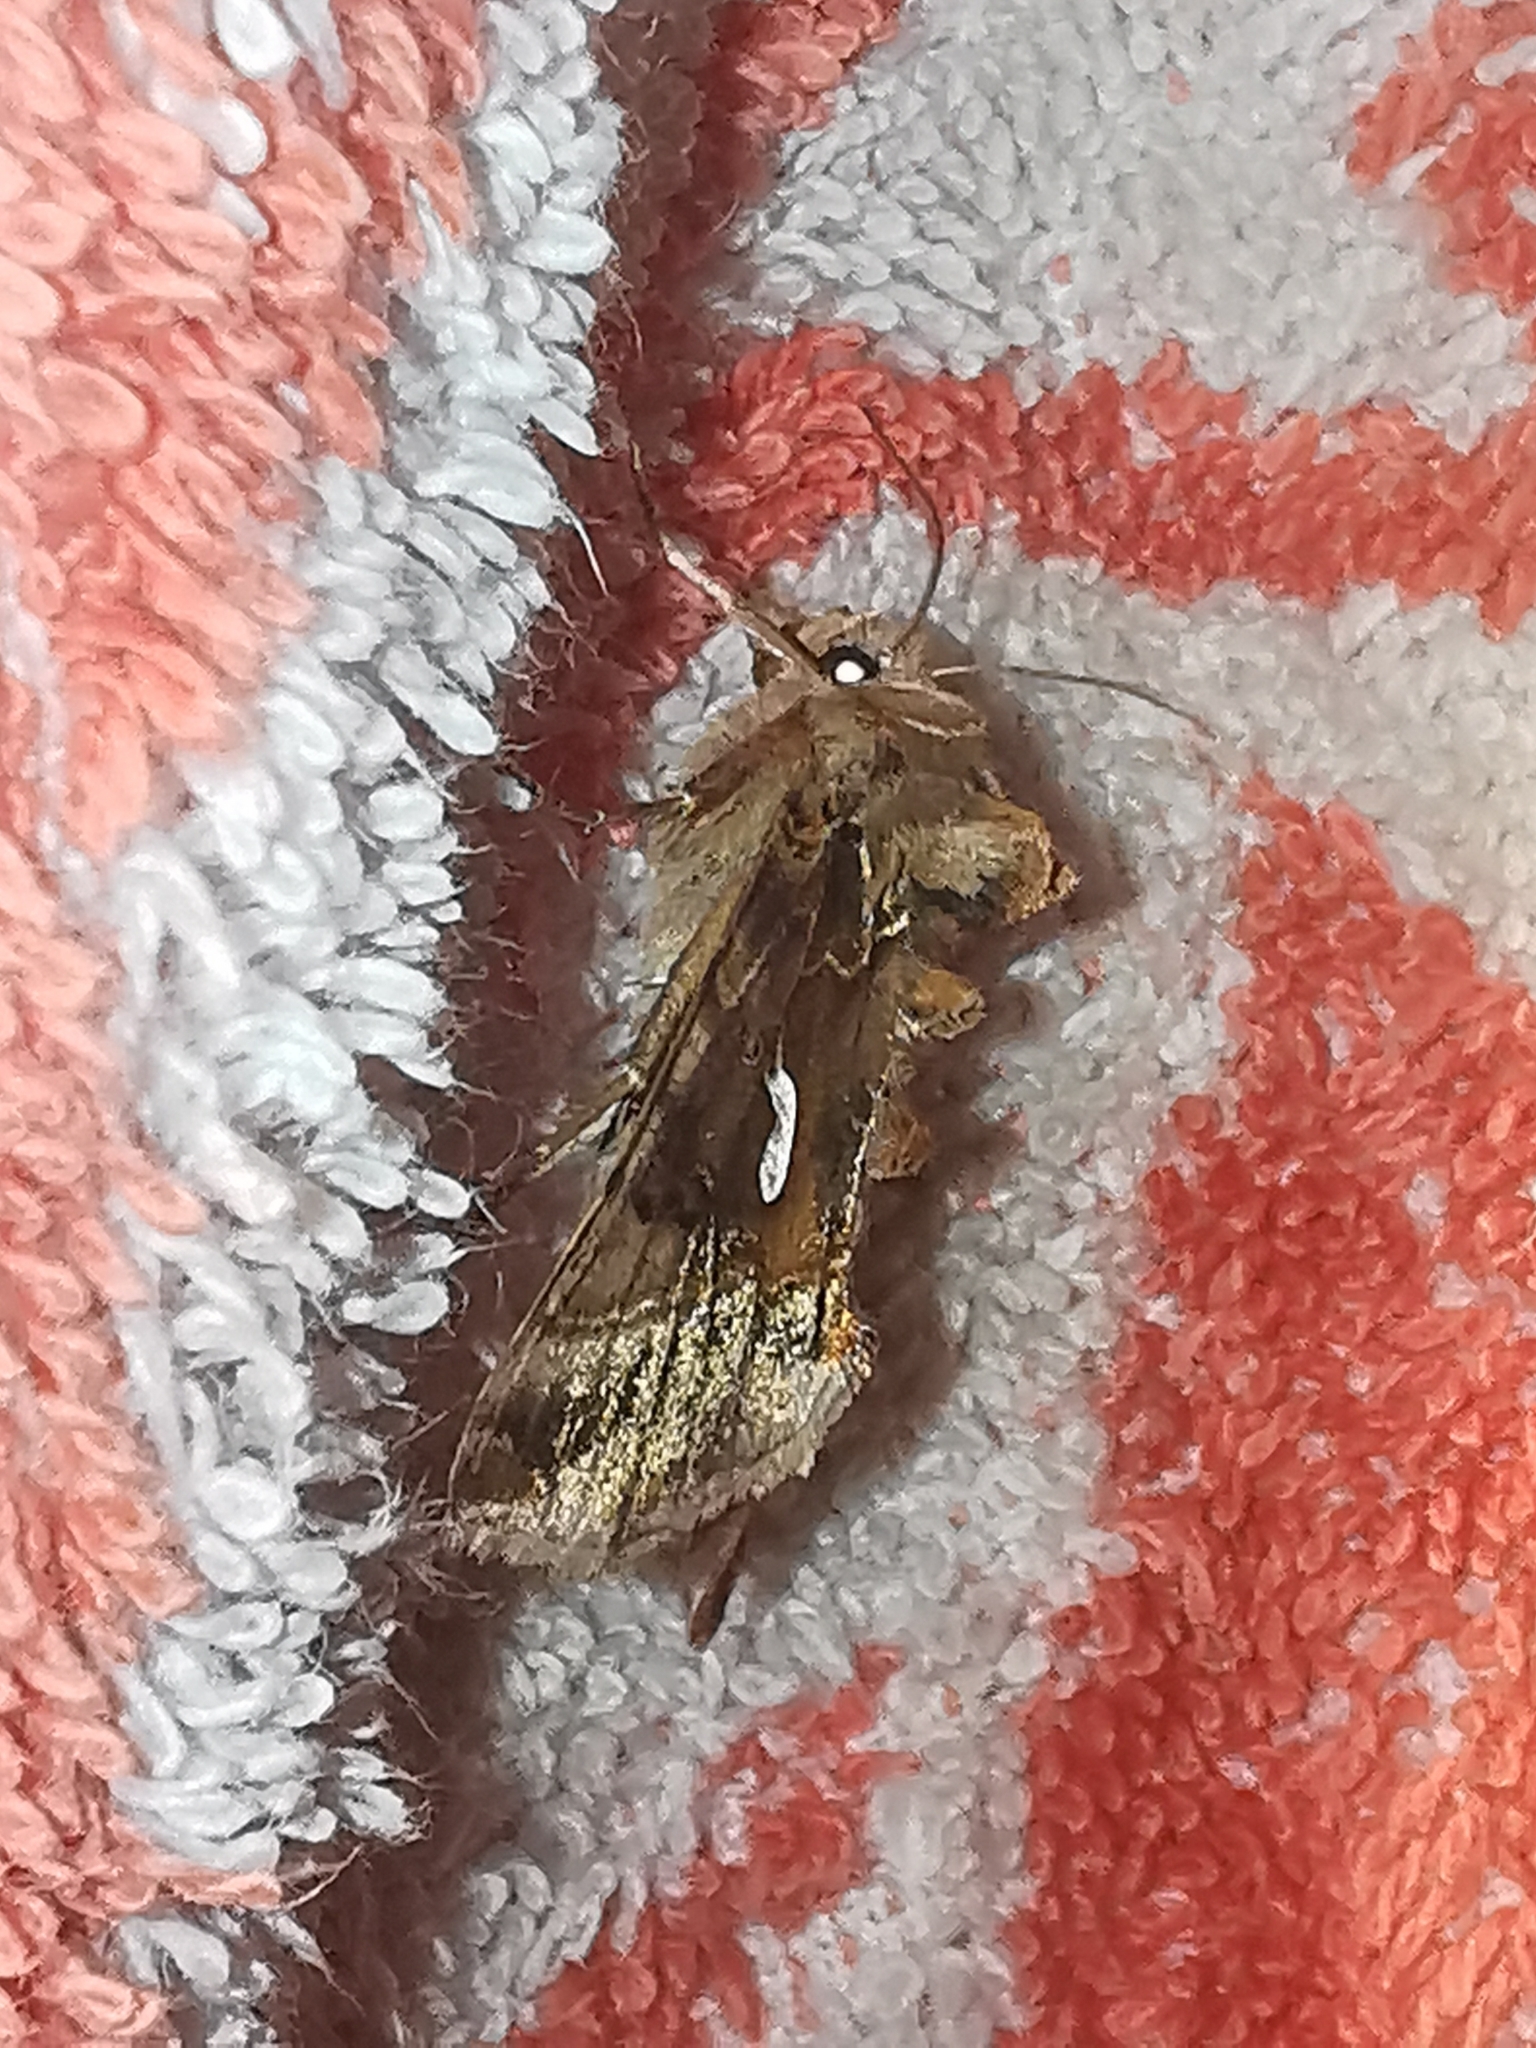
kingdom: Animalia
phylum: Arthropoda
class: Insecta
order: Lepidoptera
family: Noctuidae
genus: Autographa
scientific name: Autographa macrogamma
